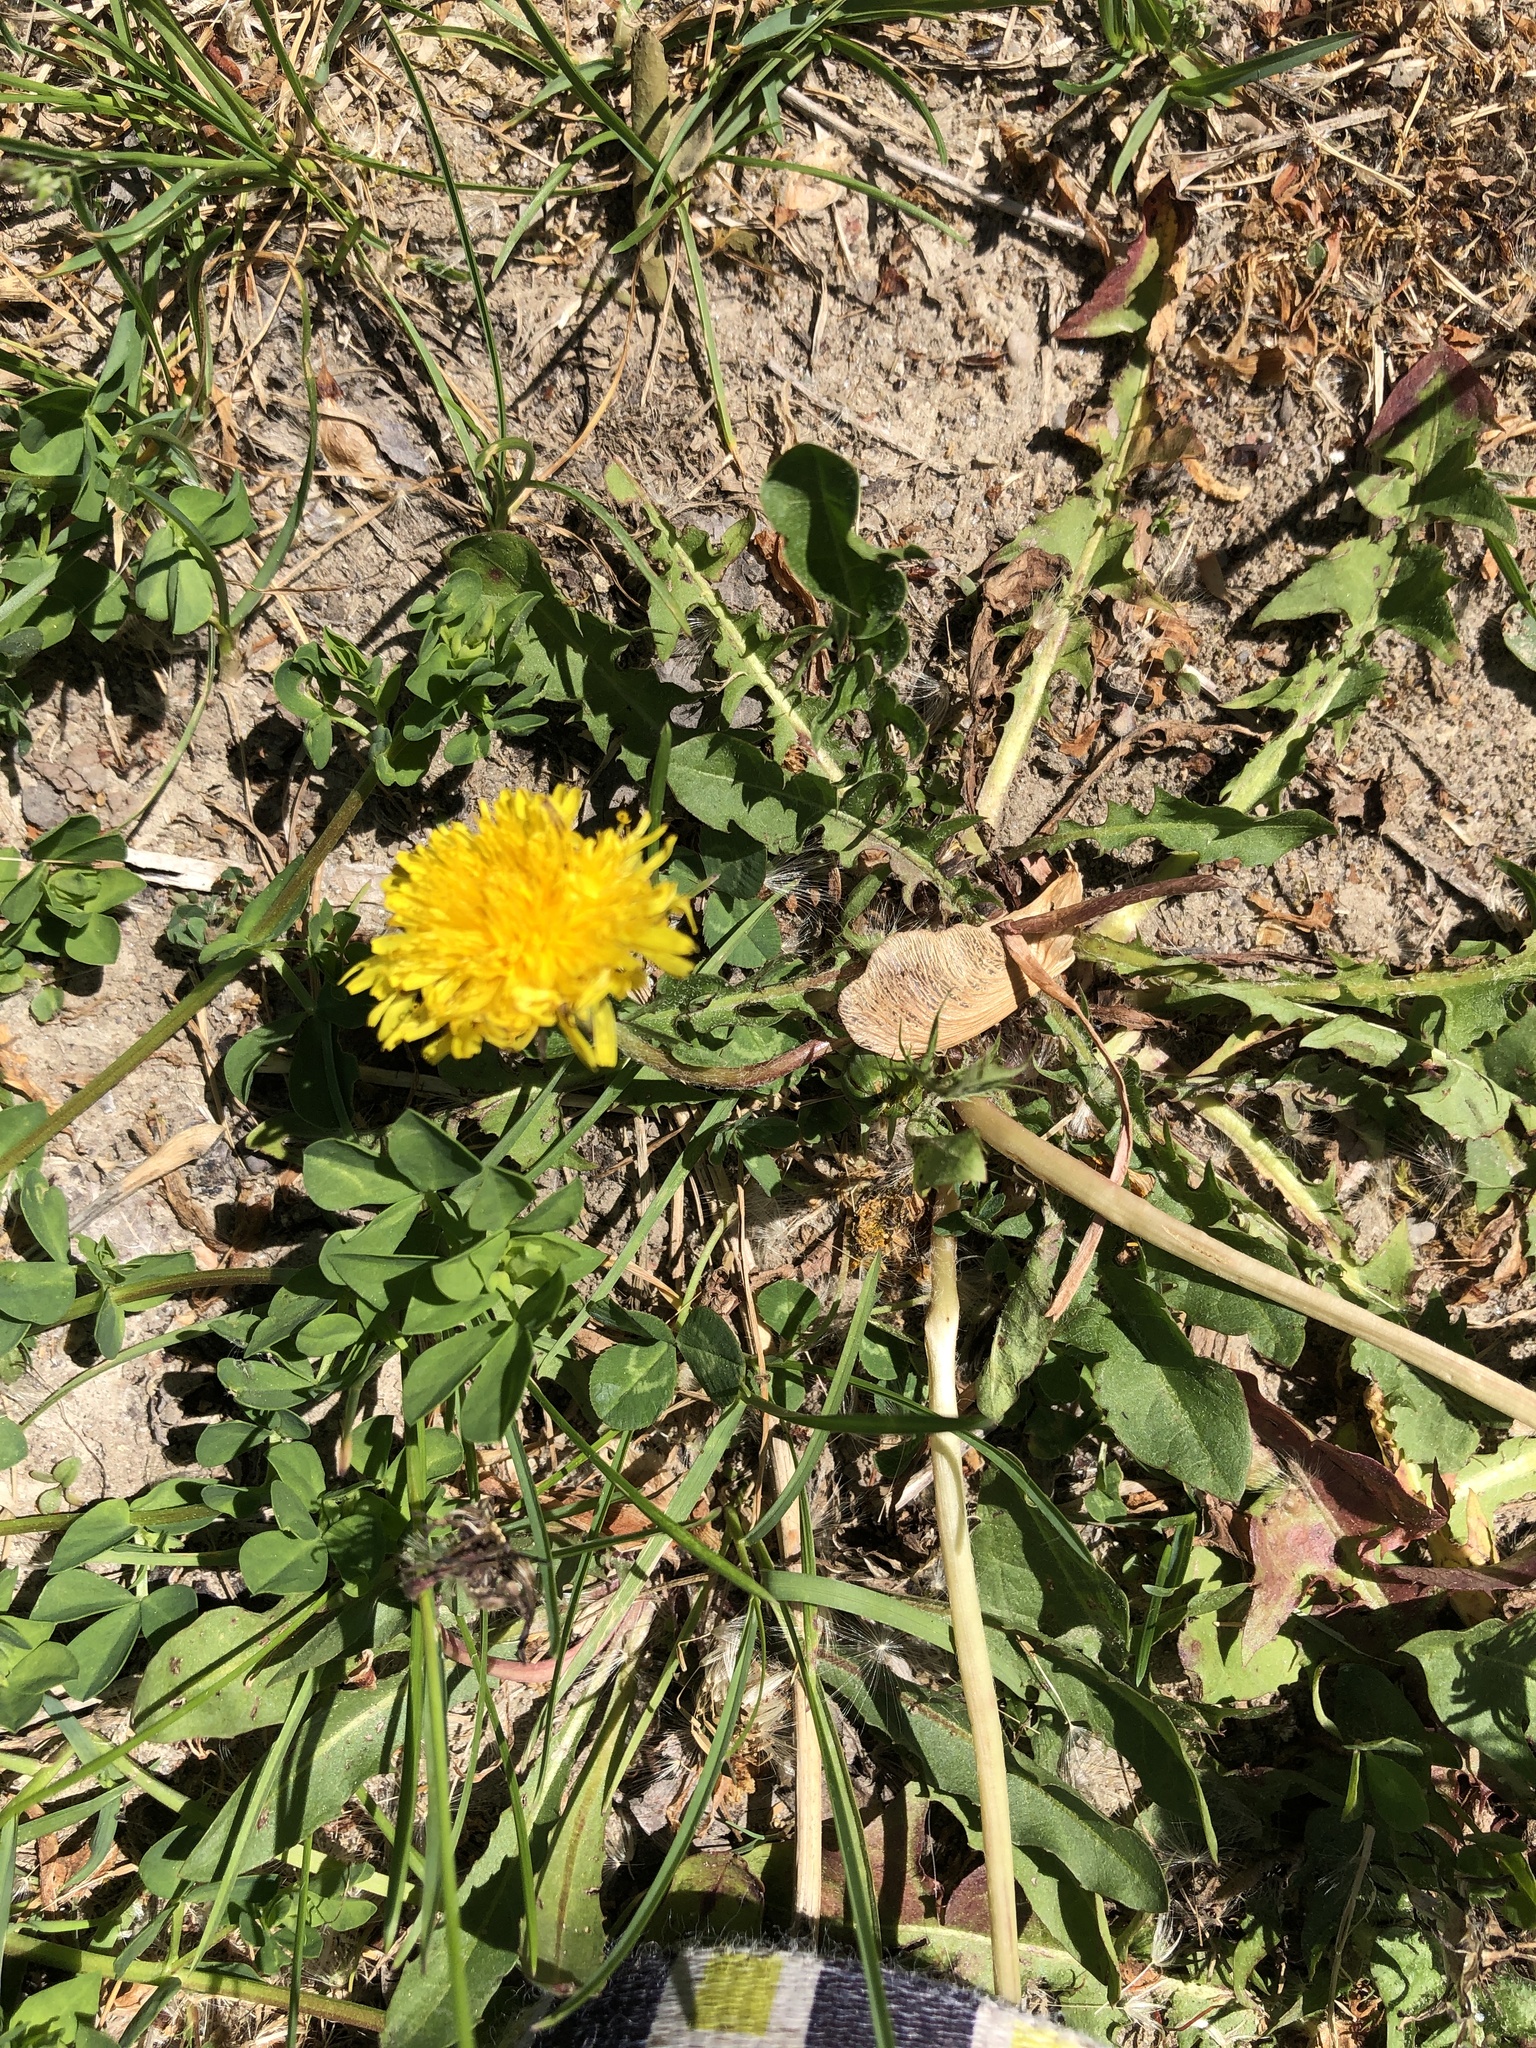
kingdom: Plantae
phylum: Tracheophyta
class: Magnoliopsida
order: Asterales
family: Asteraceae
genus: Taraxacum
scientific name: Taraxacum officinale
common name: Common dandelion
